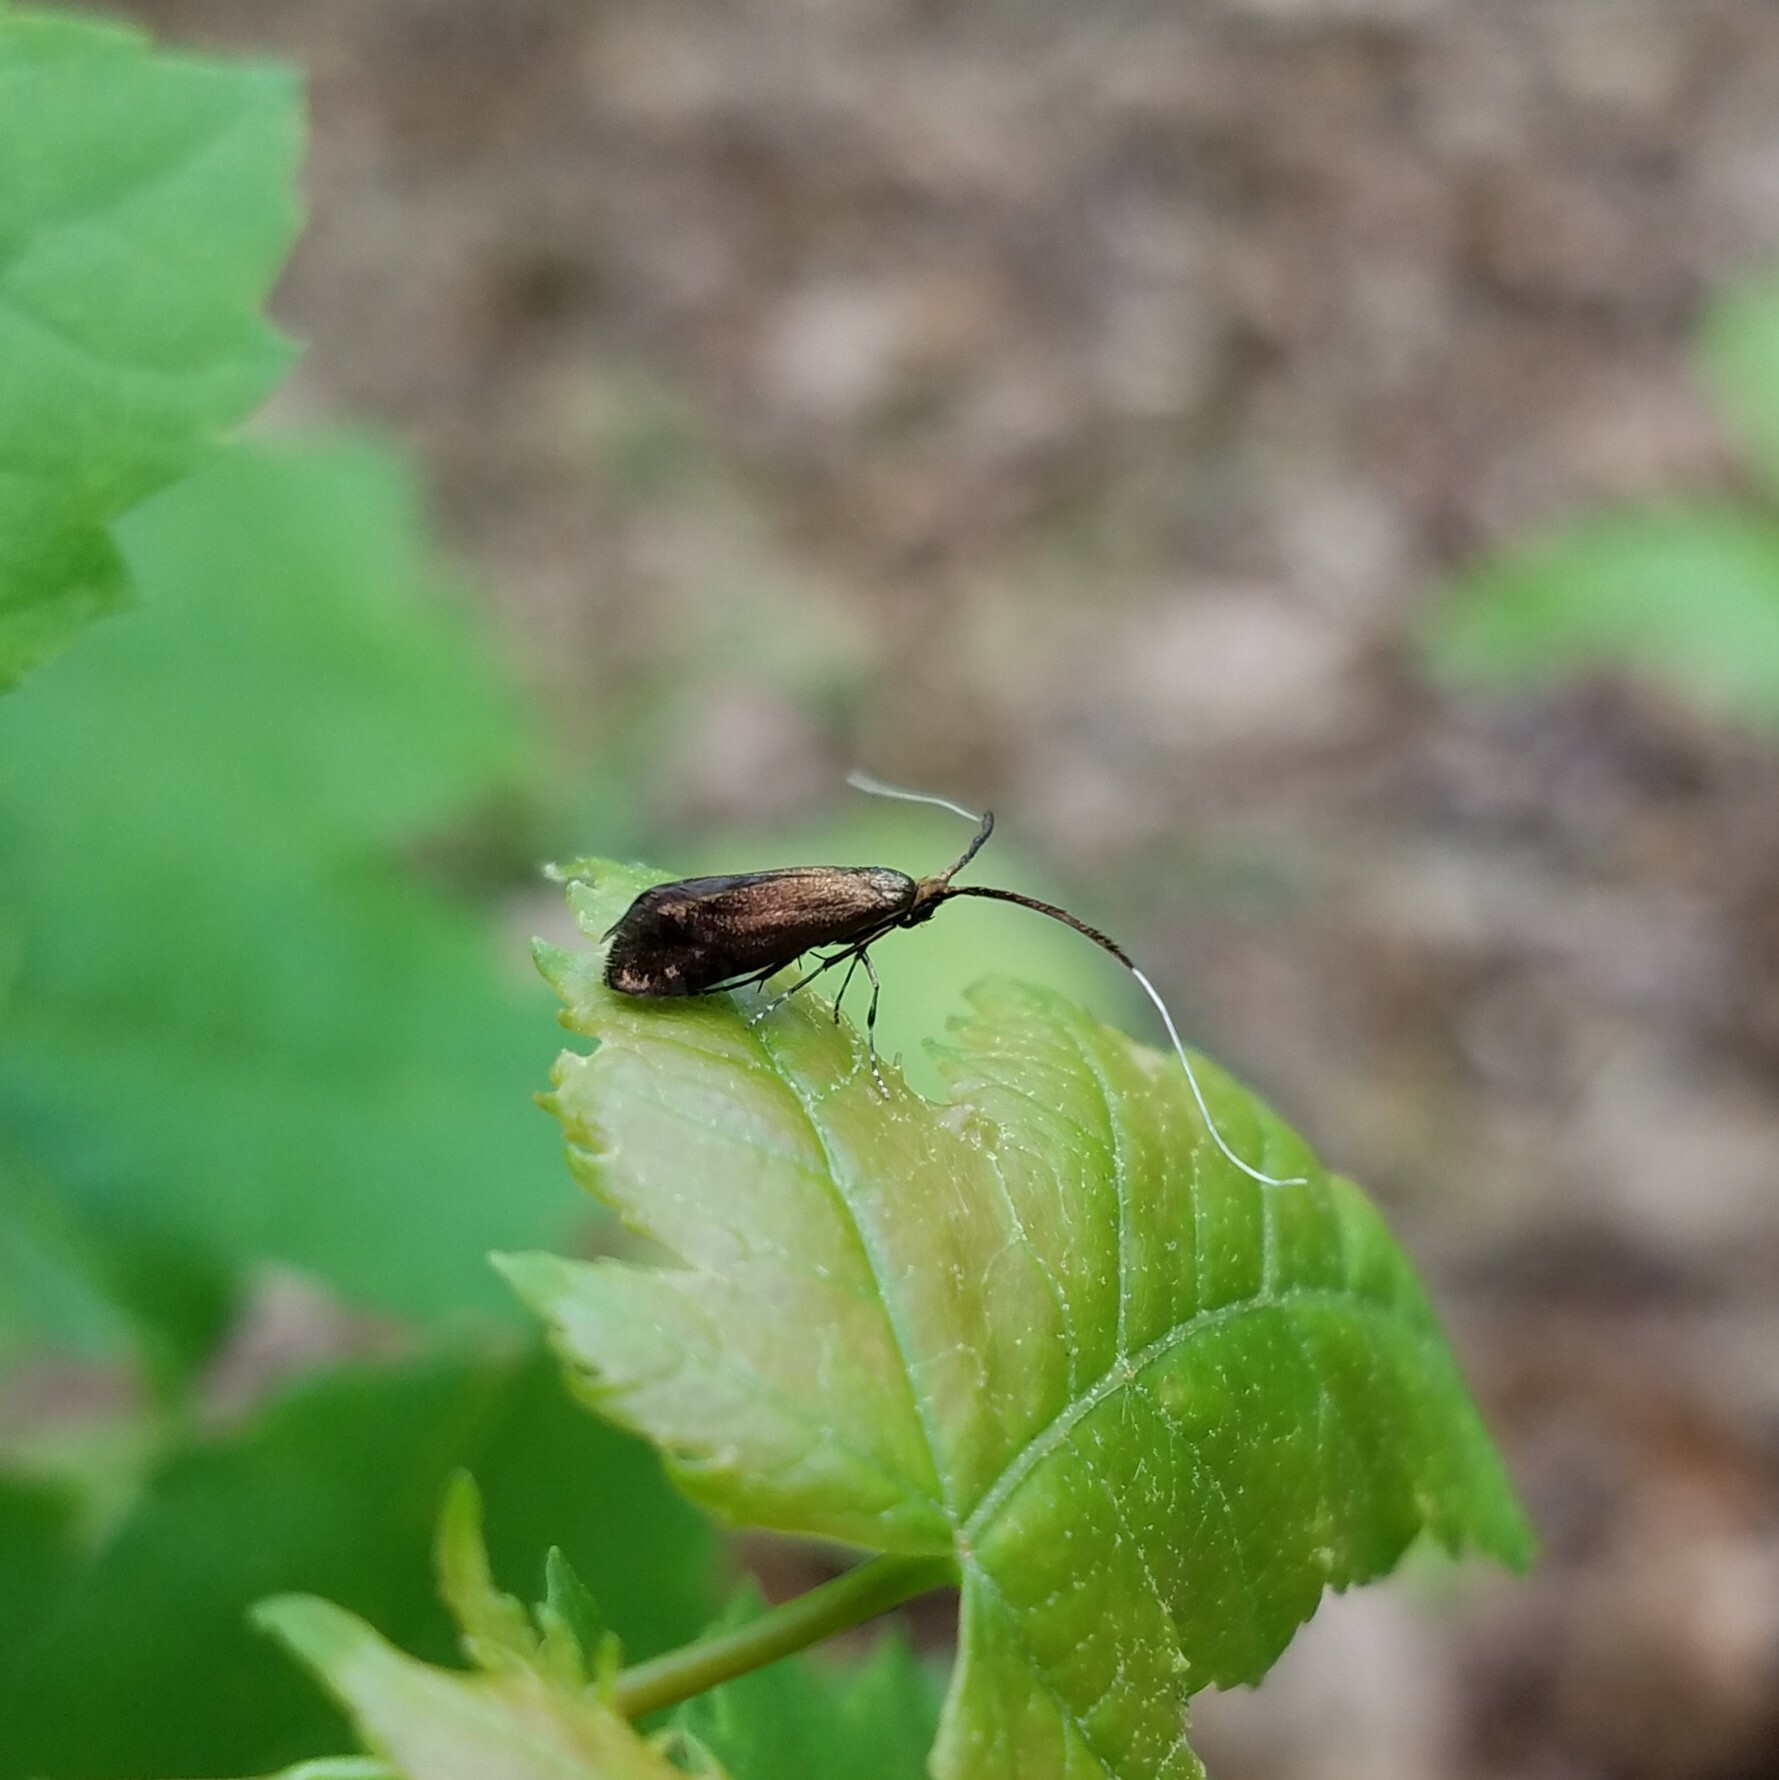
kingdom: Animalia
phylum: Arthropoda
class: Insecta
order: Lepidoptera
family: Adelidae
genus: Adela
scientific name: Adela caeruleella
